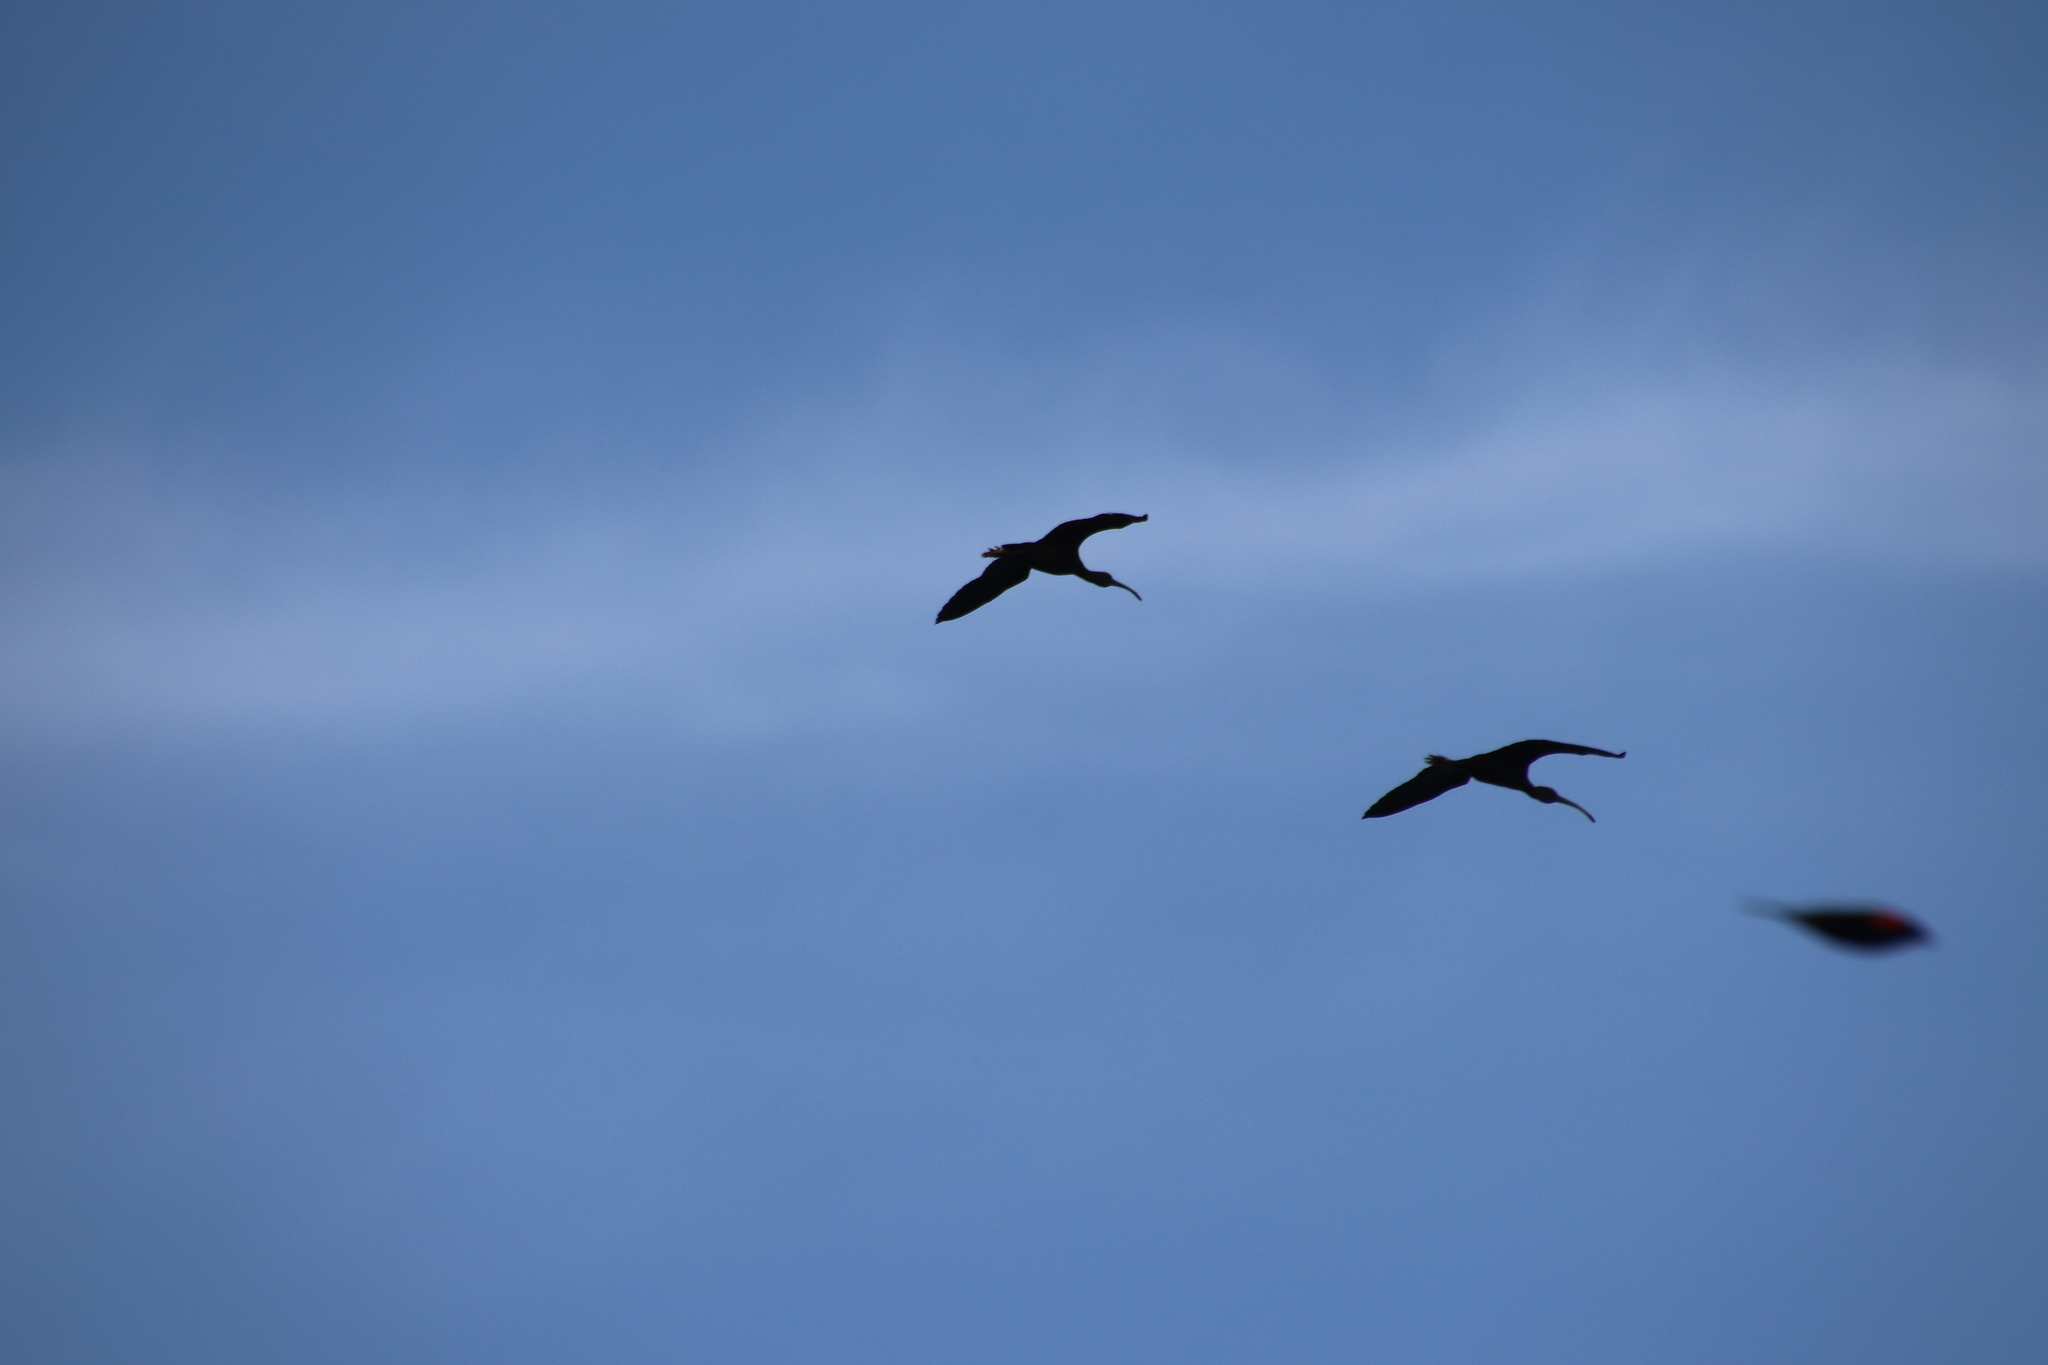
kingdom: Animalia
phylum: Chordata
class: Aves
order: Pelecaniformes
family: Threskiornithidae
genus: Plegadis
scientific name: Plegadis chihi
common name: White-faced ibis
